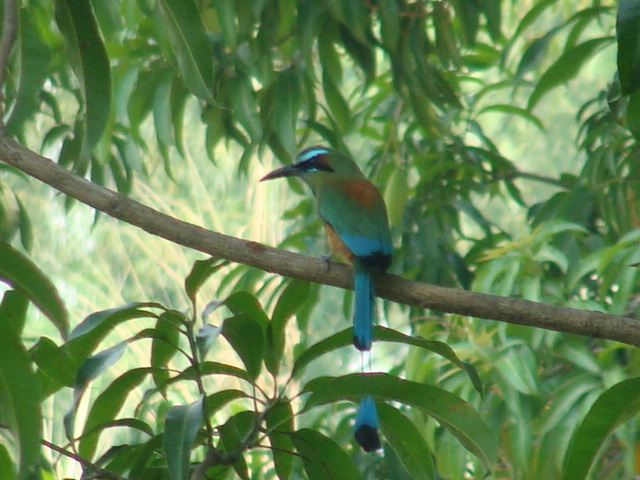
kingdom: Animalia
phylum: Chordata
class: Aves
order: Coraciiformes
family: Momotidae
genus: Eumomota
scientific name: Eumomota superciliosa
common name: Turquoise-browed motmot
